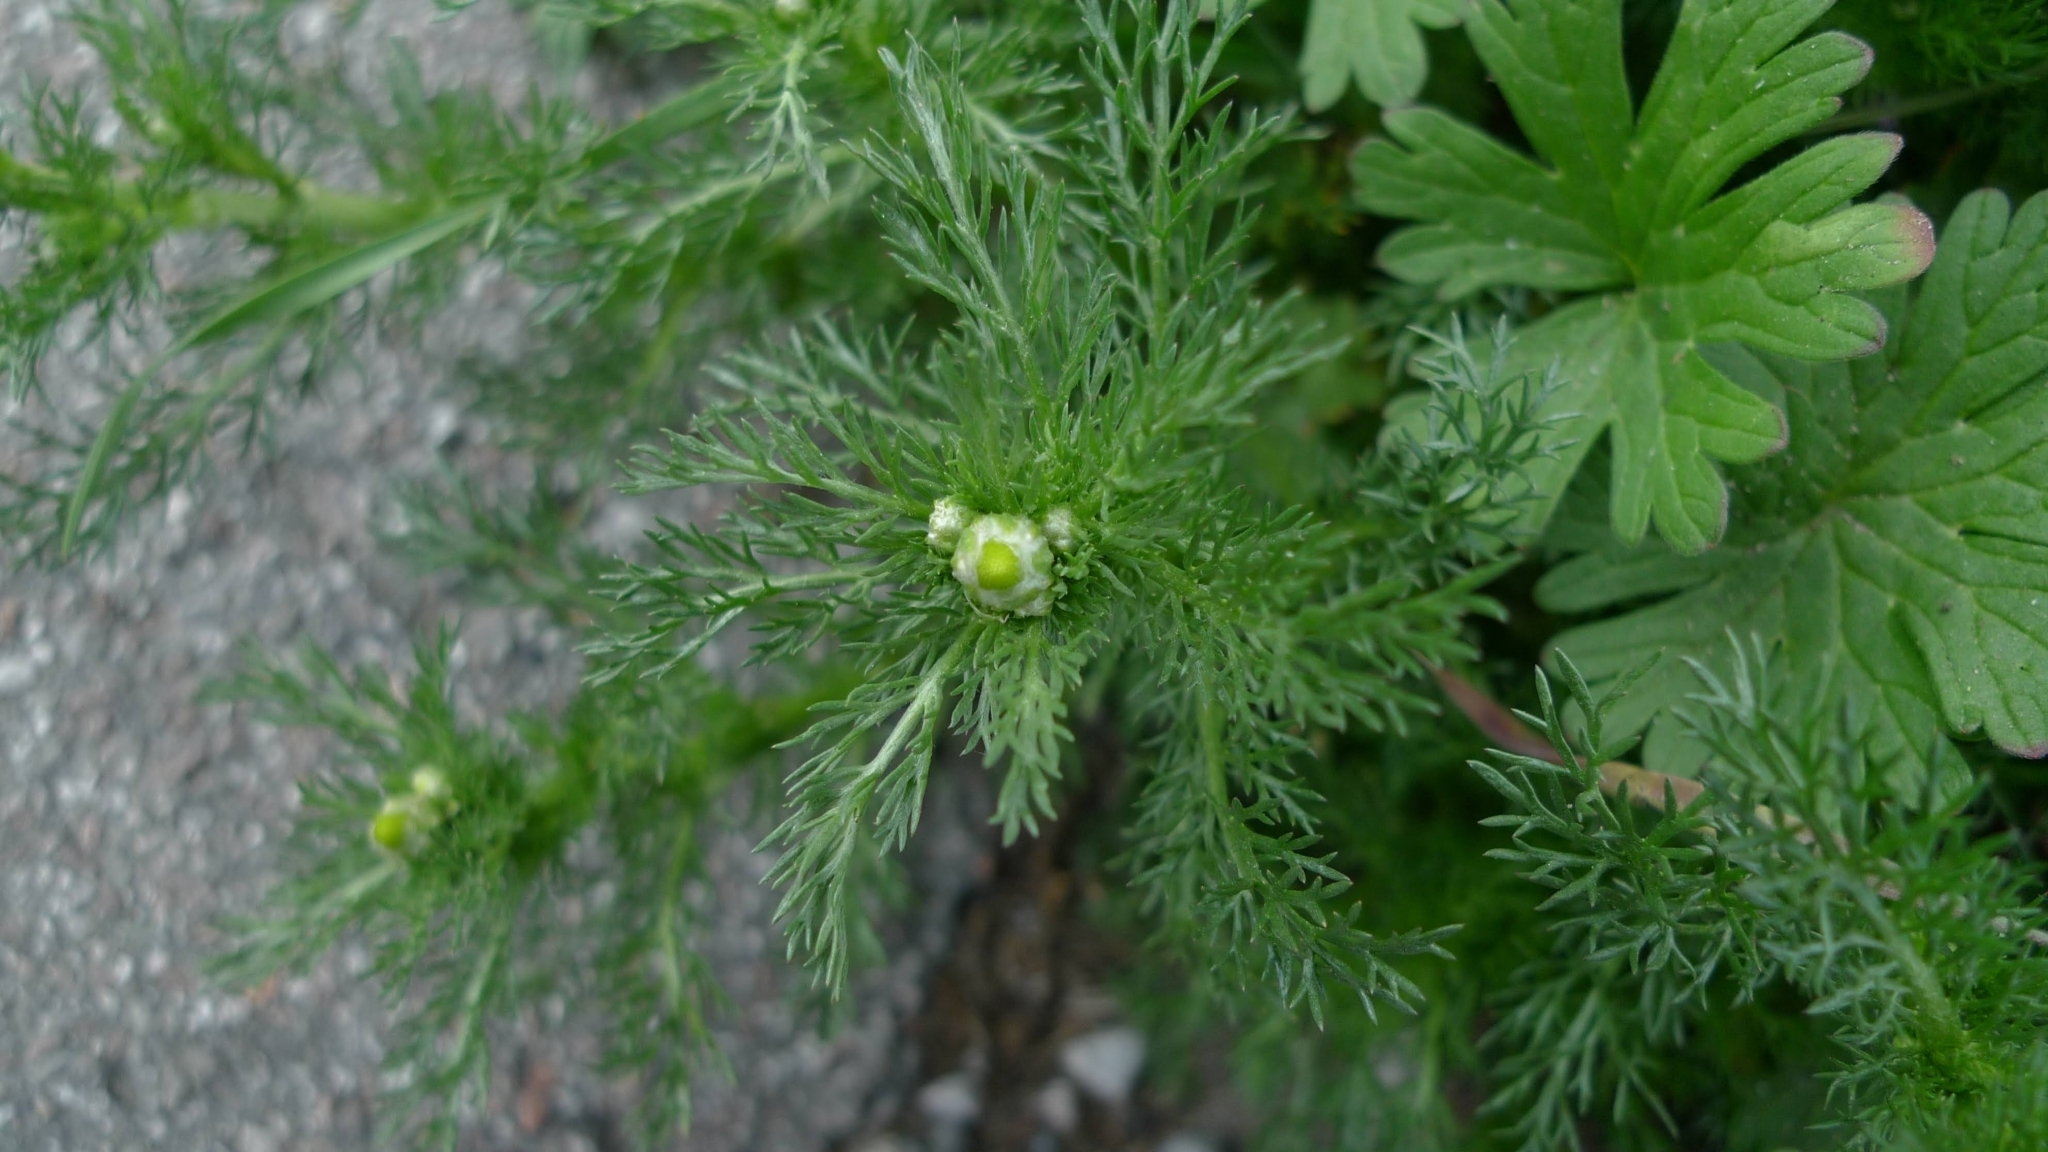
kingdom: Plantae
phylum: Tracheophyta
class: Magnoliopsida
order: Asterales
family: Asteraceae
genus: Matricaria
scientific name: Matricaria discoidea
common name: Disc mayweed
